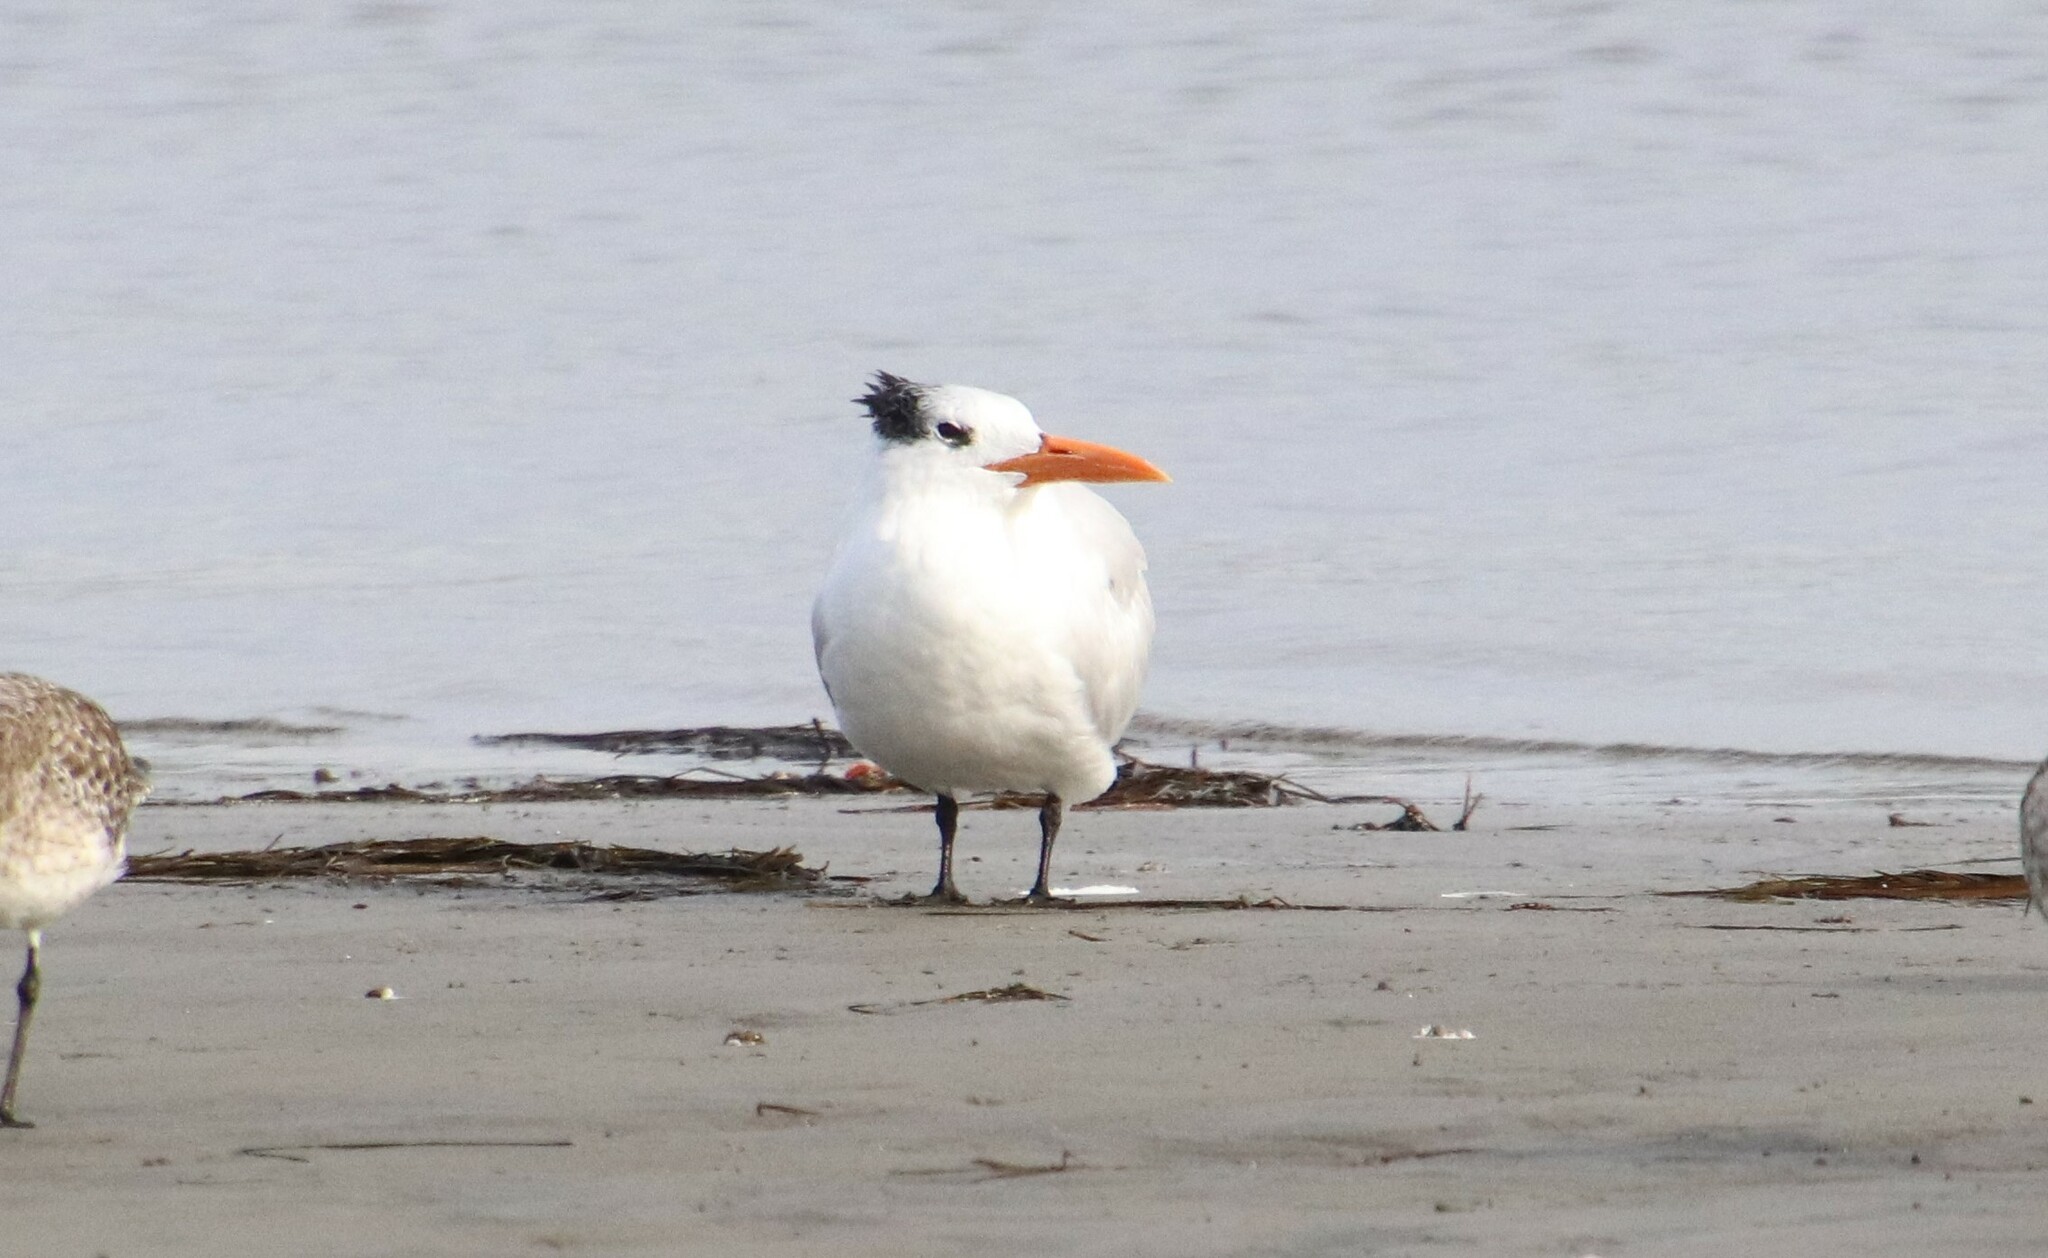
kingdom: Animalia
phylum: Chordata
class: Aves
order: Charadriiformes
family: Laridae
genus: Thalasseus
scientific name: Thalasseus maximus
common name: Royal tern
